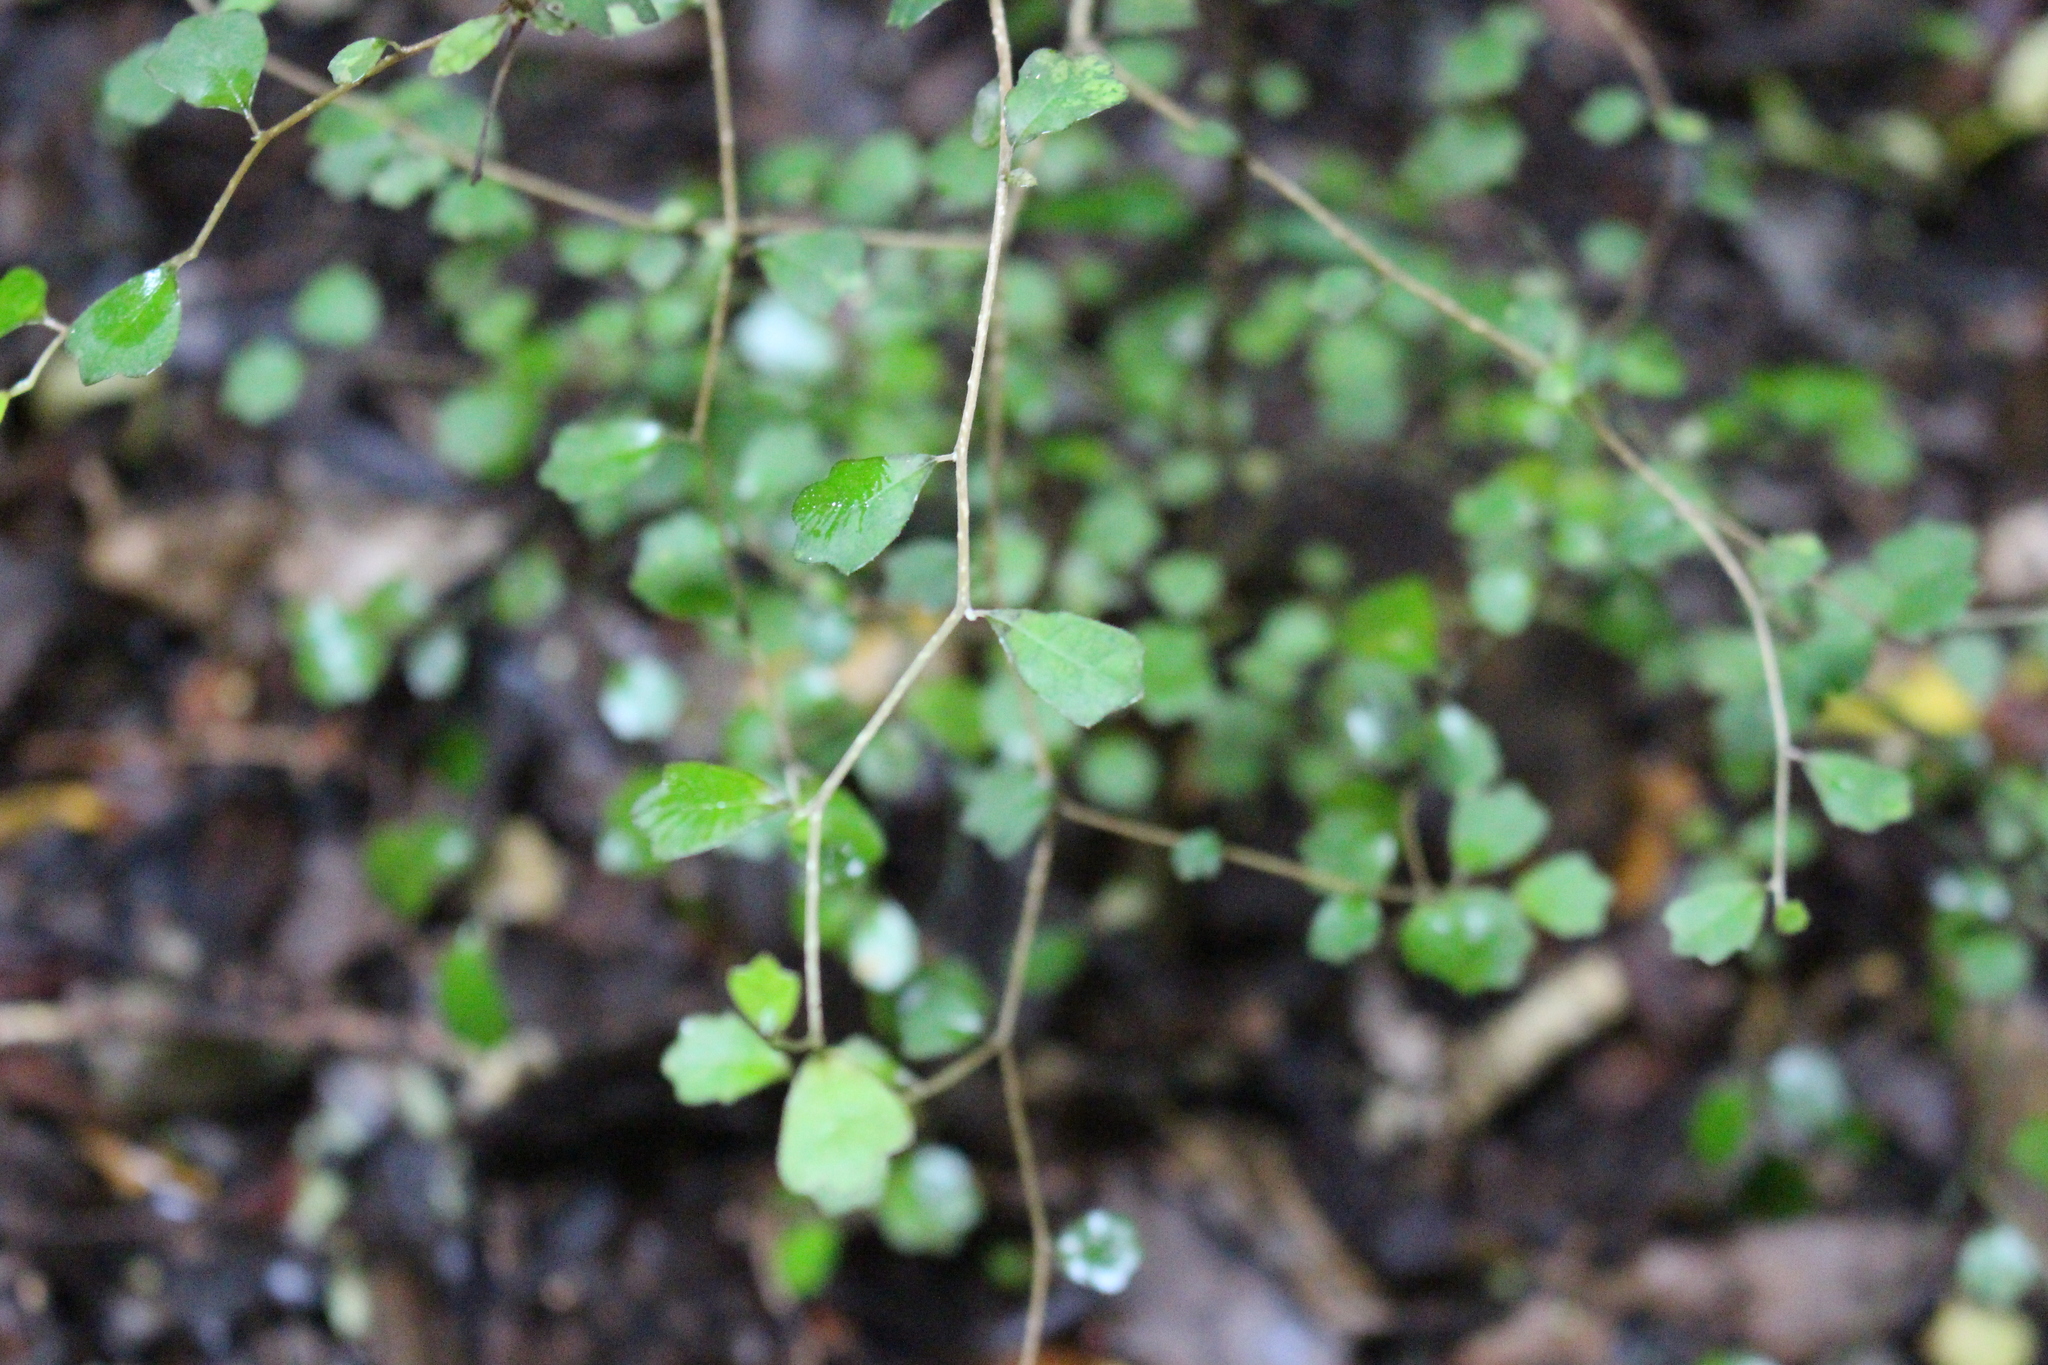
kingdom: Plantae
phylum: Tracheophyta
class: Magnoliopsida
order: Apiales
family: Pennantiaceae
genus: Pennantia
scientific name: Pennantia corymbosa
